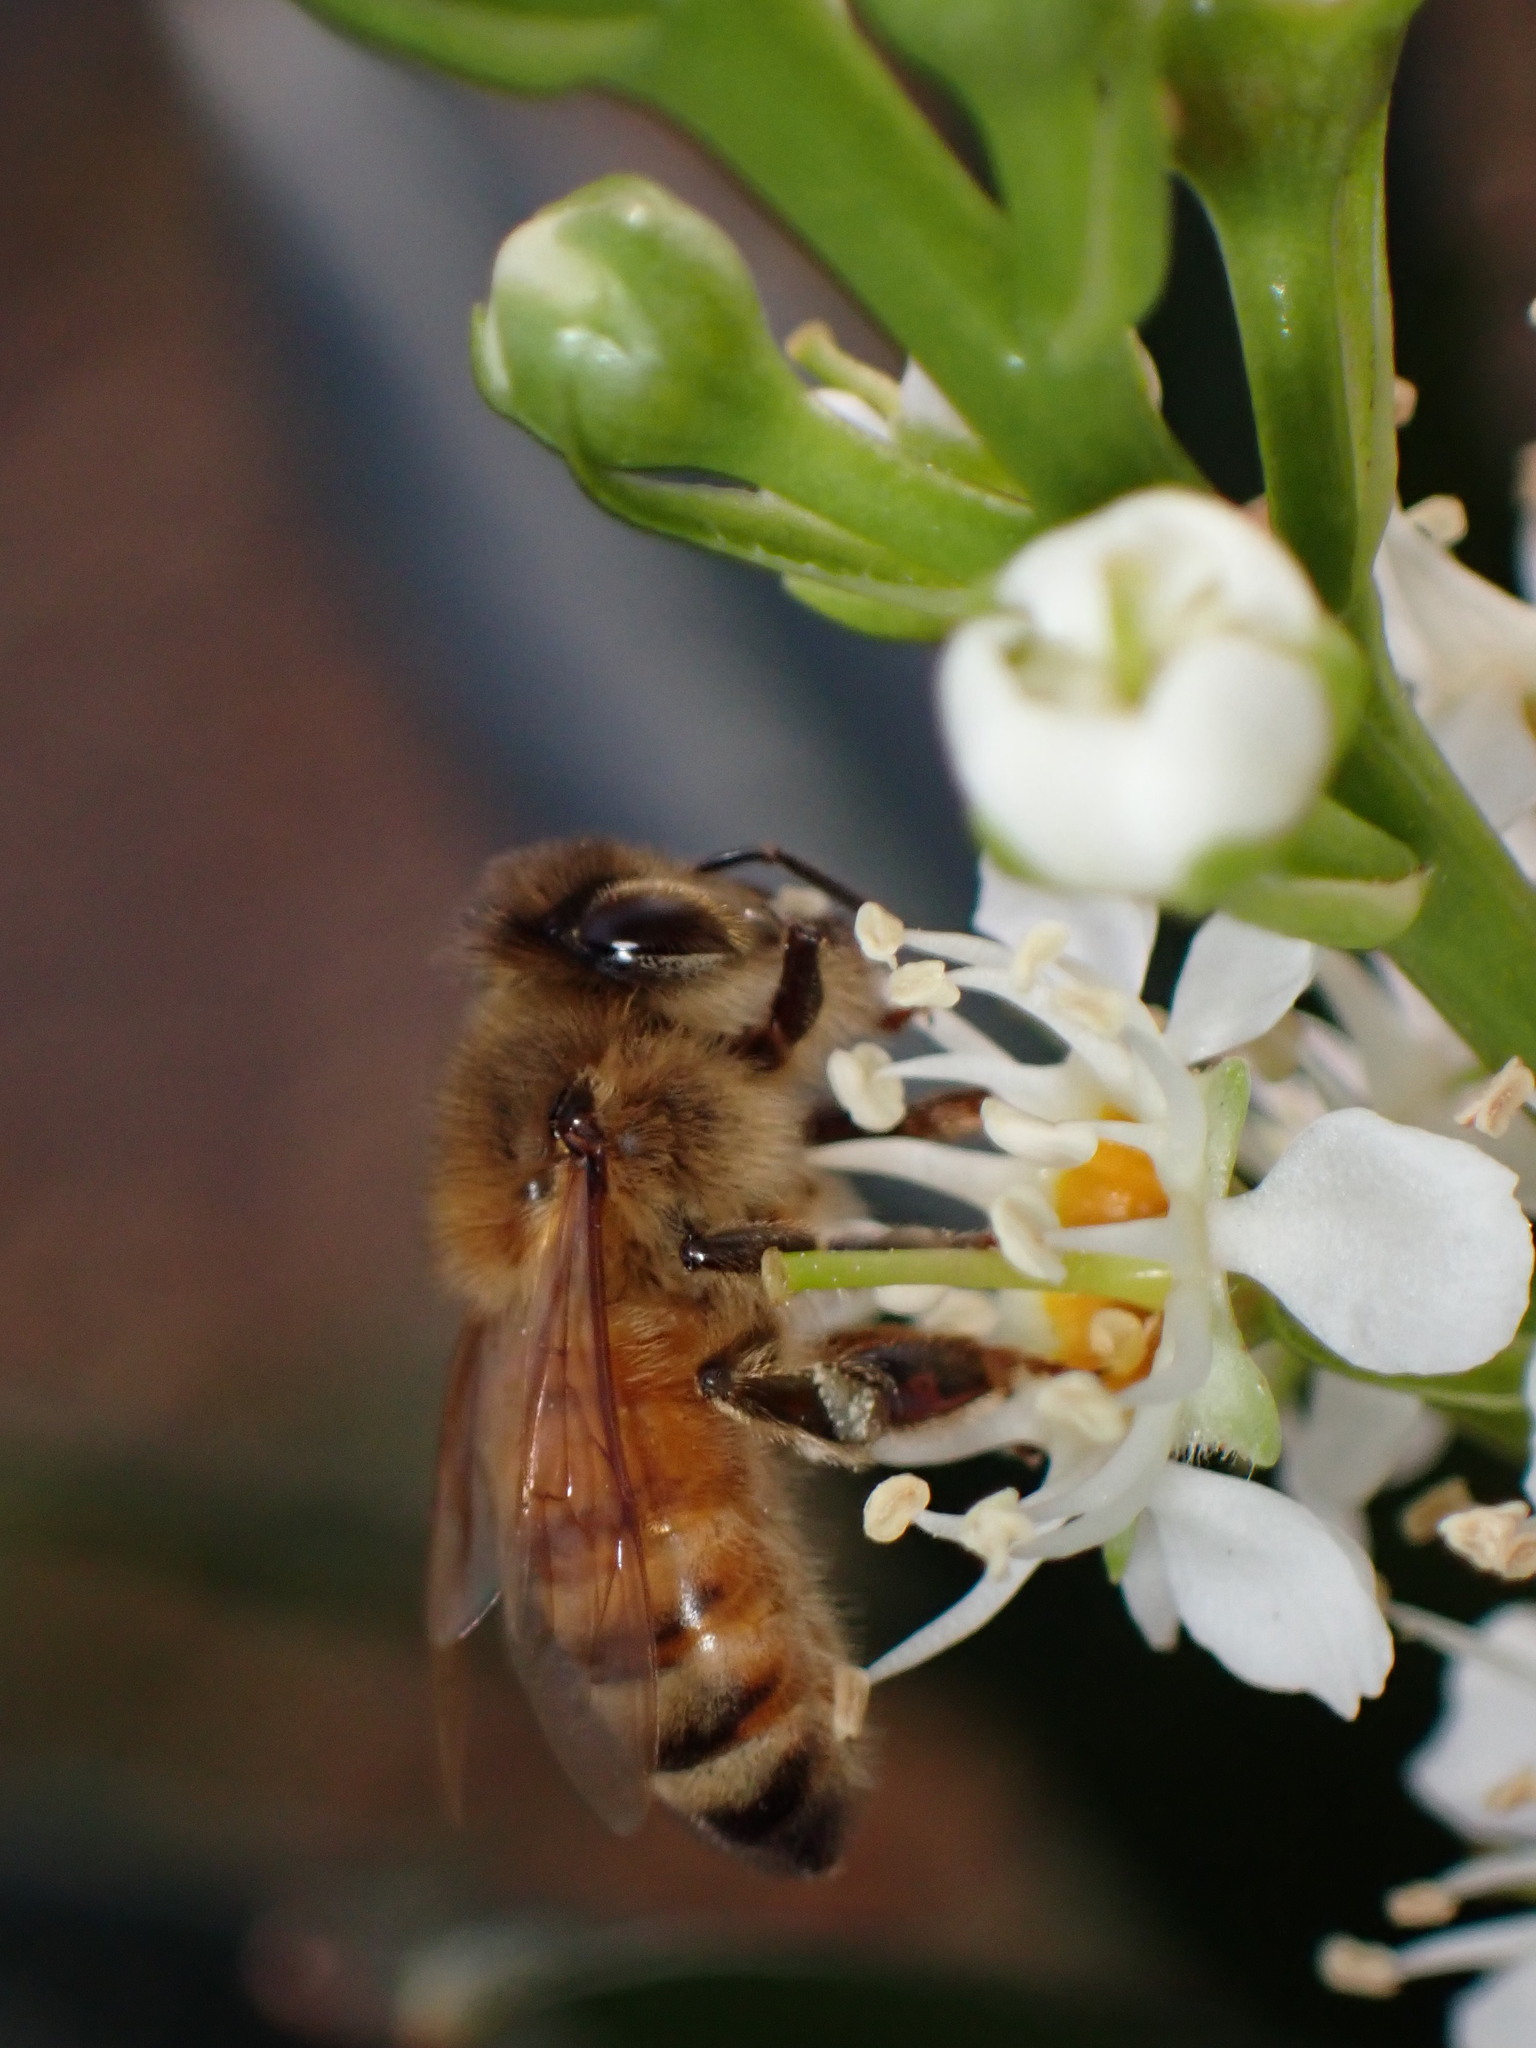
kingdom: Animalia
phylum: Arthropoda
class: Insecta
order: Hymenoptera
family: Apidae
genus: Apis
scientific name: Apis mellifera
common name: Honey bee
